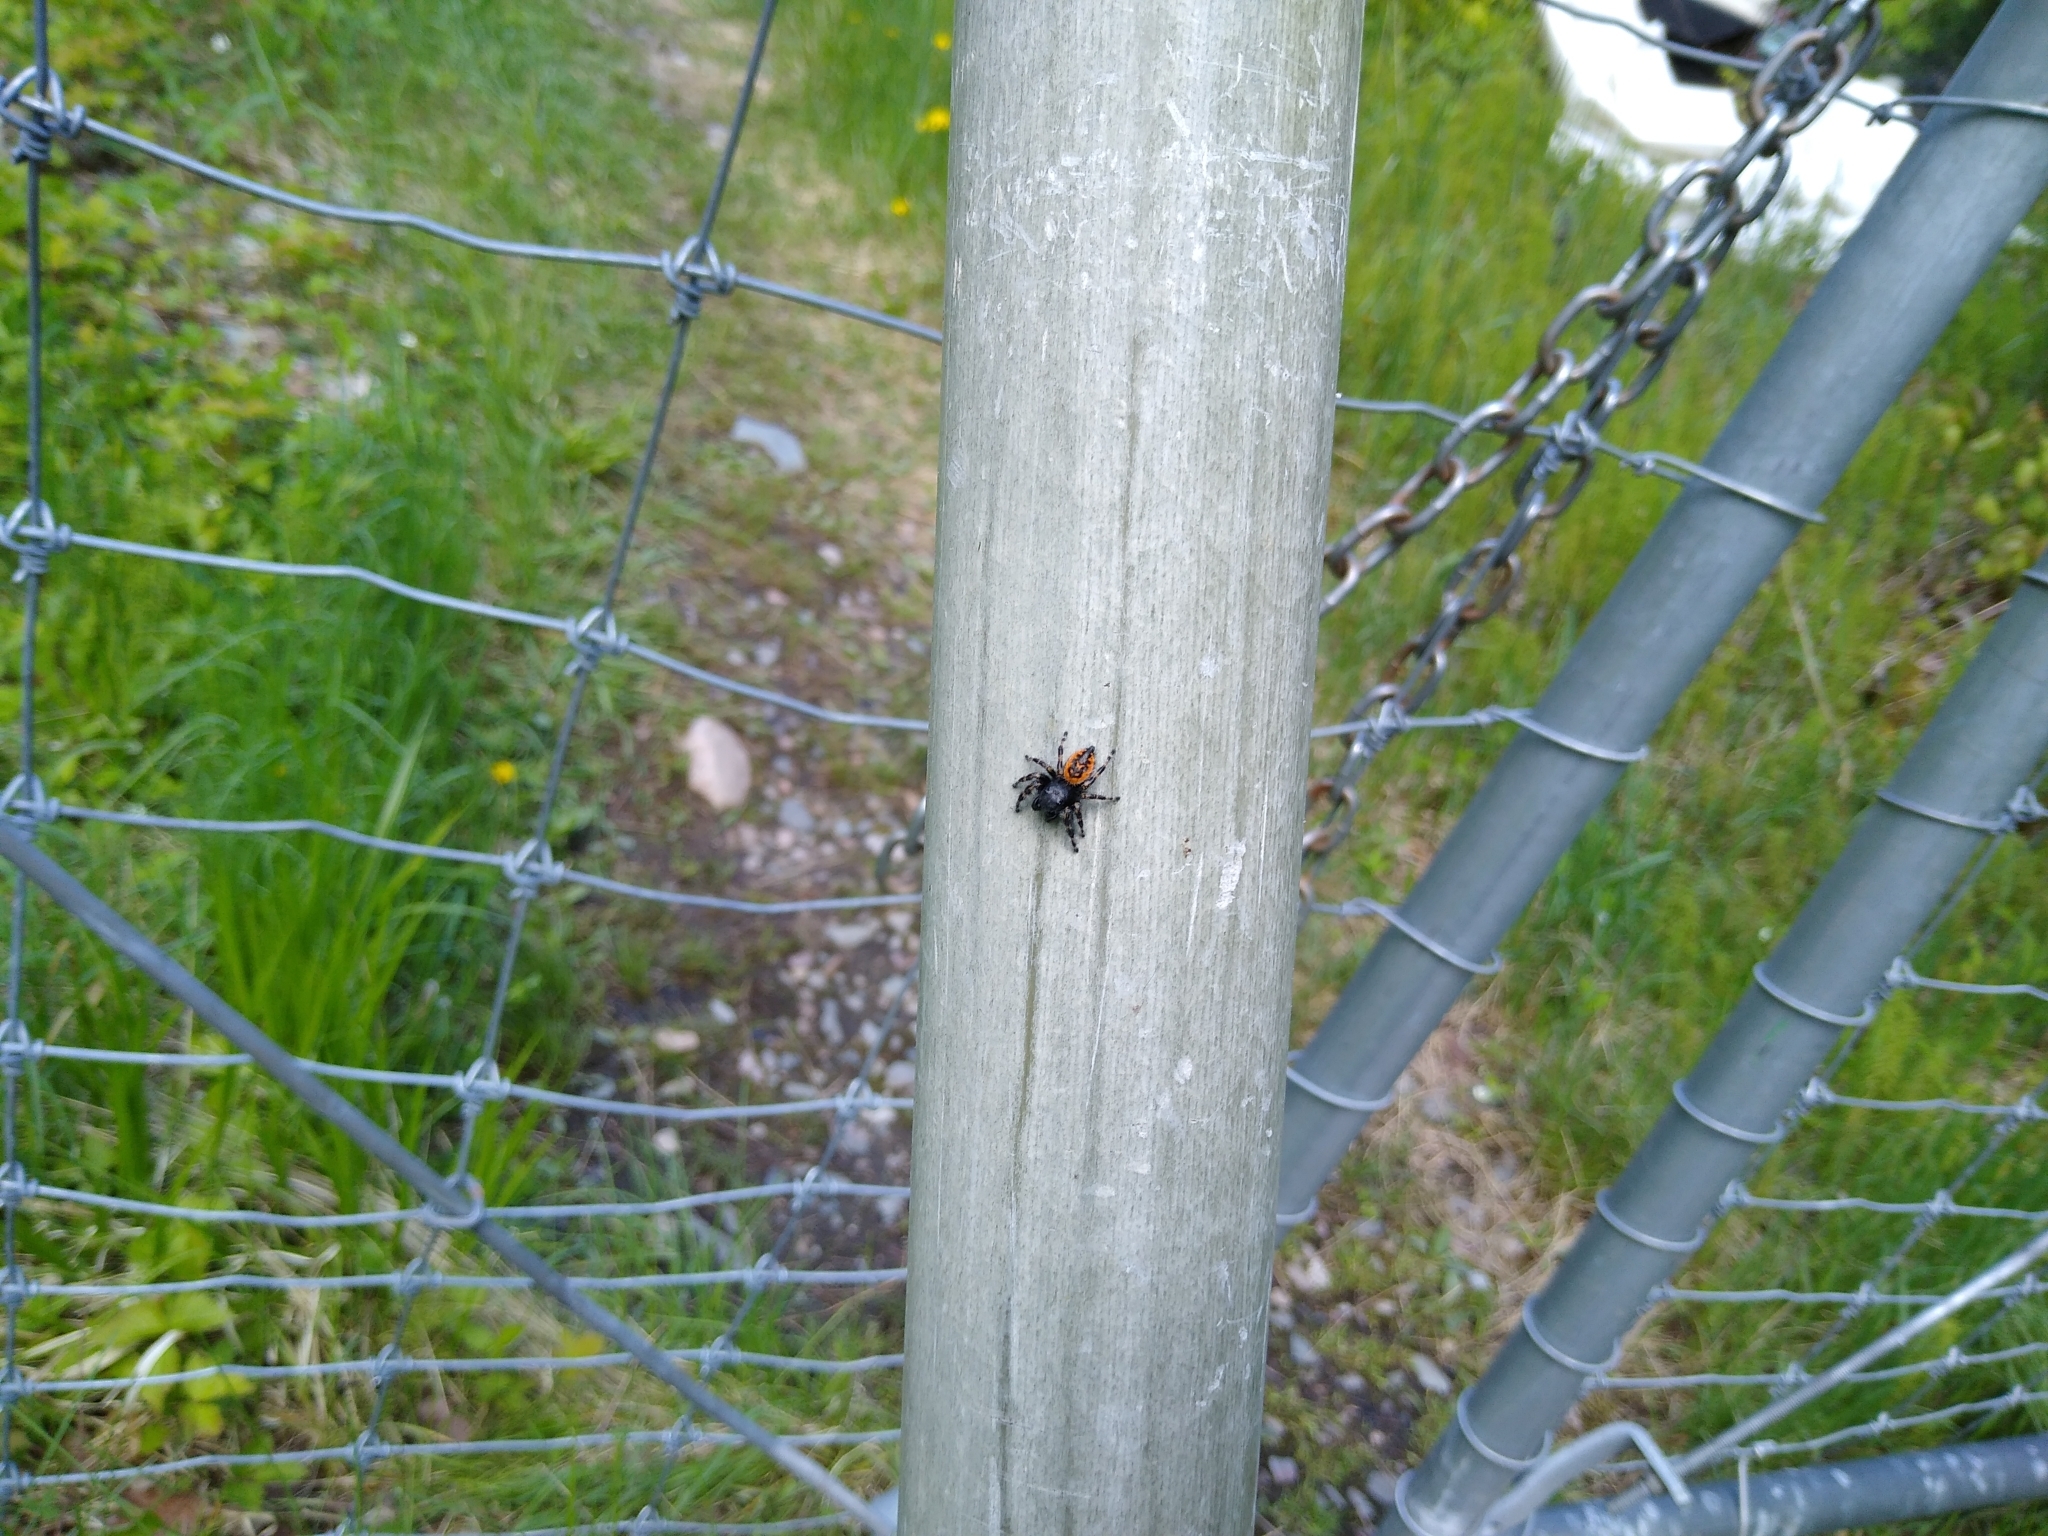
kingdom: Animalia
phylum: Arthropoda
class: Arachnida
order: Araneae
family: Salticidae
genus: Phidippus
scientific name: Phidippus borealis
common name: Boreal tufted jumping spider
